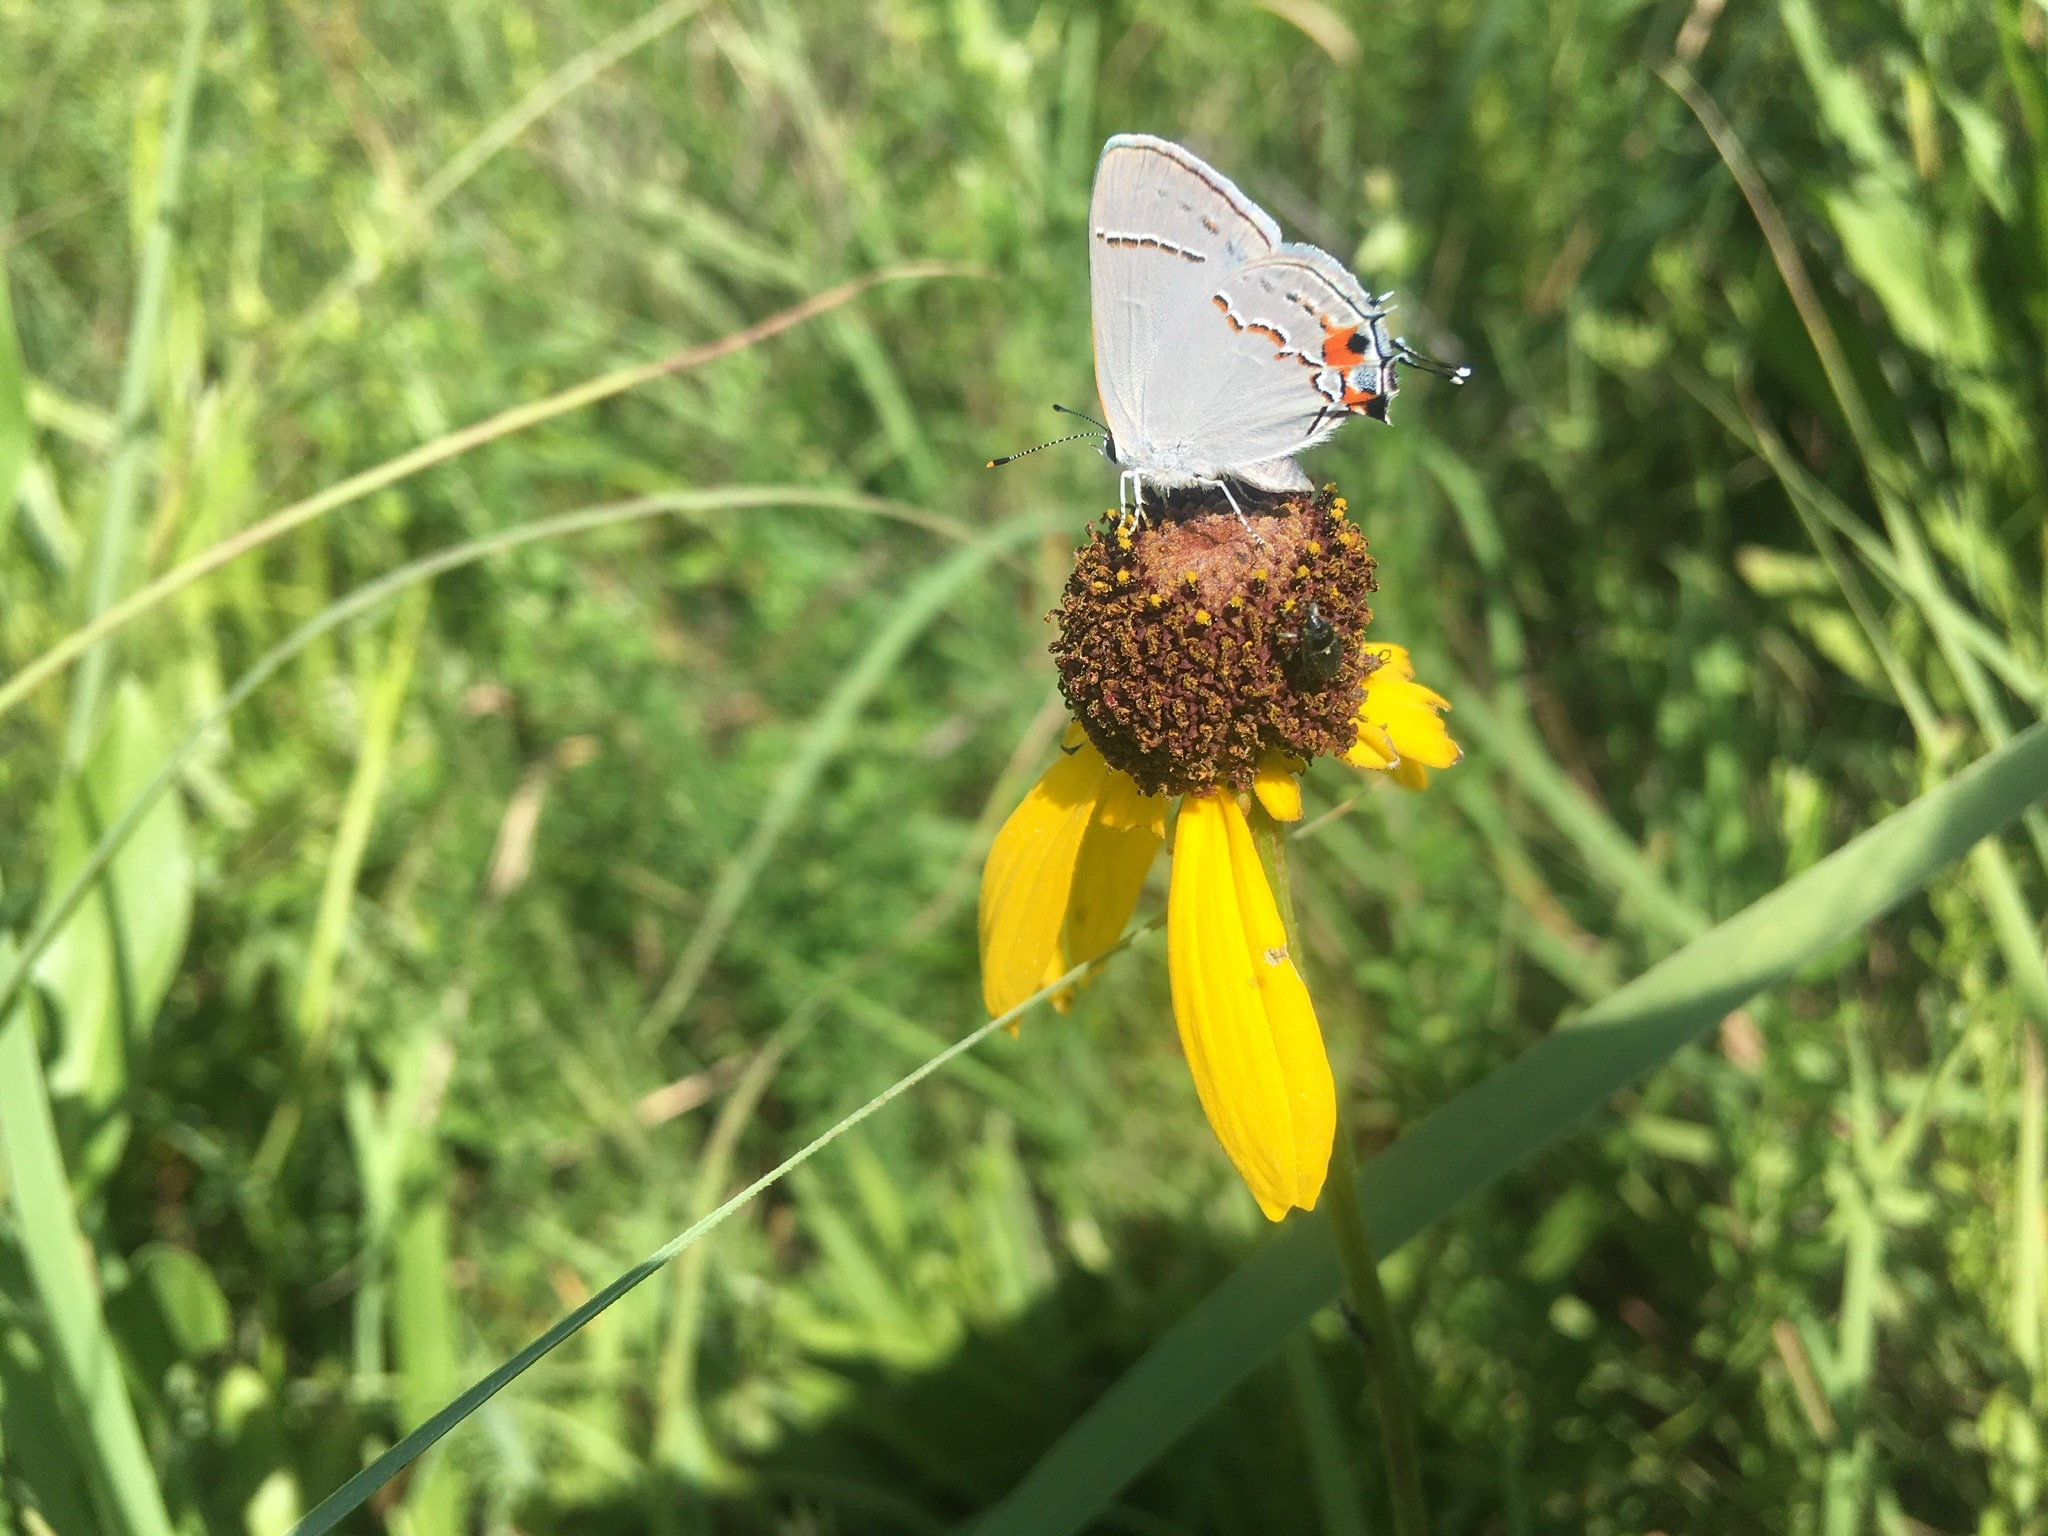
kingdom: Animalia
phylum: Arthropoda
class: Insecta
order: Lepidoptera
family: Lycaenidae
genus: Strymon
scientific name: Strymon melinus
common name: Gray hairstreak
